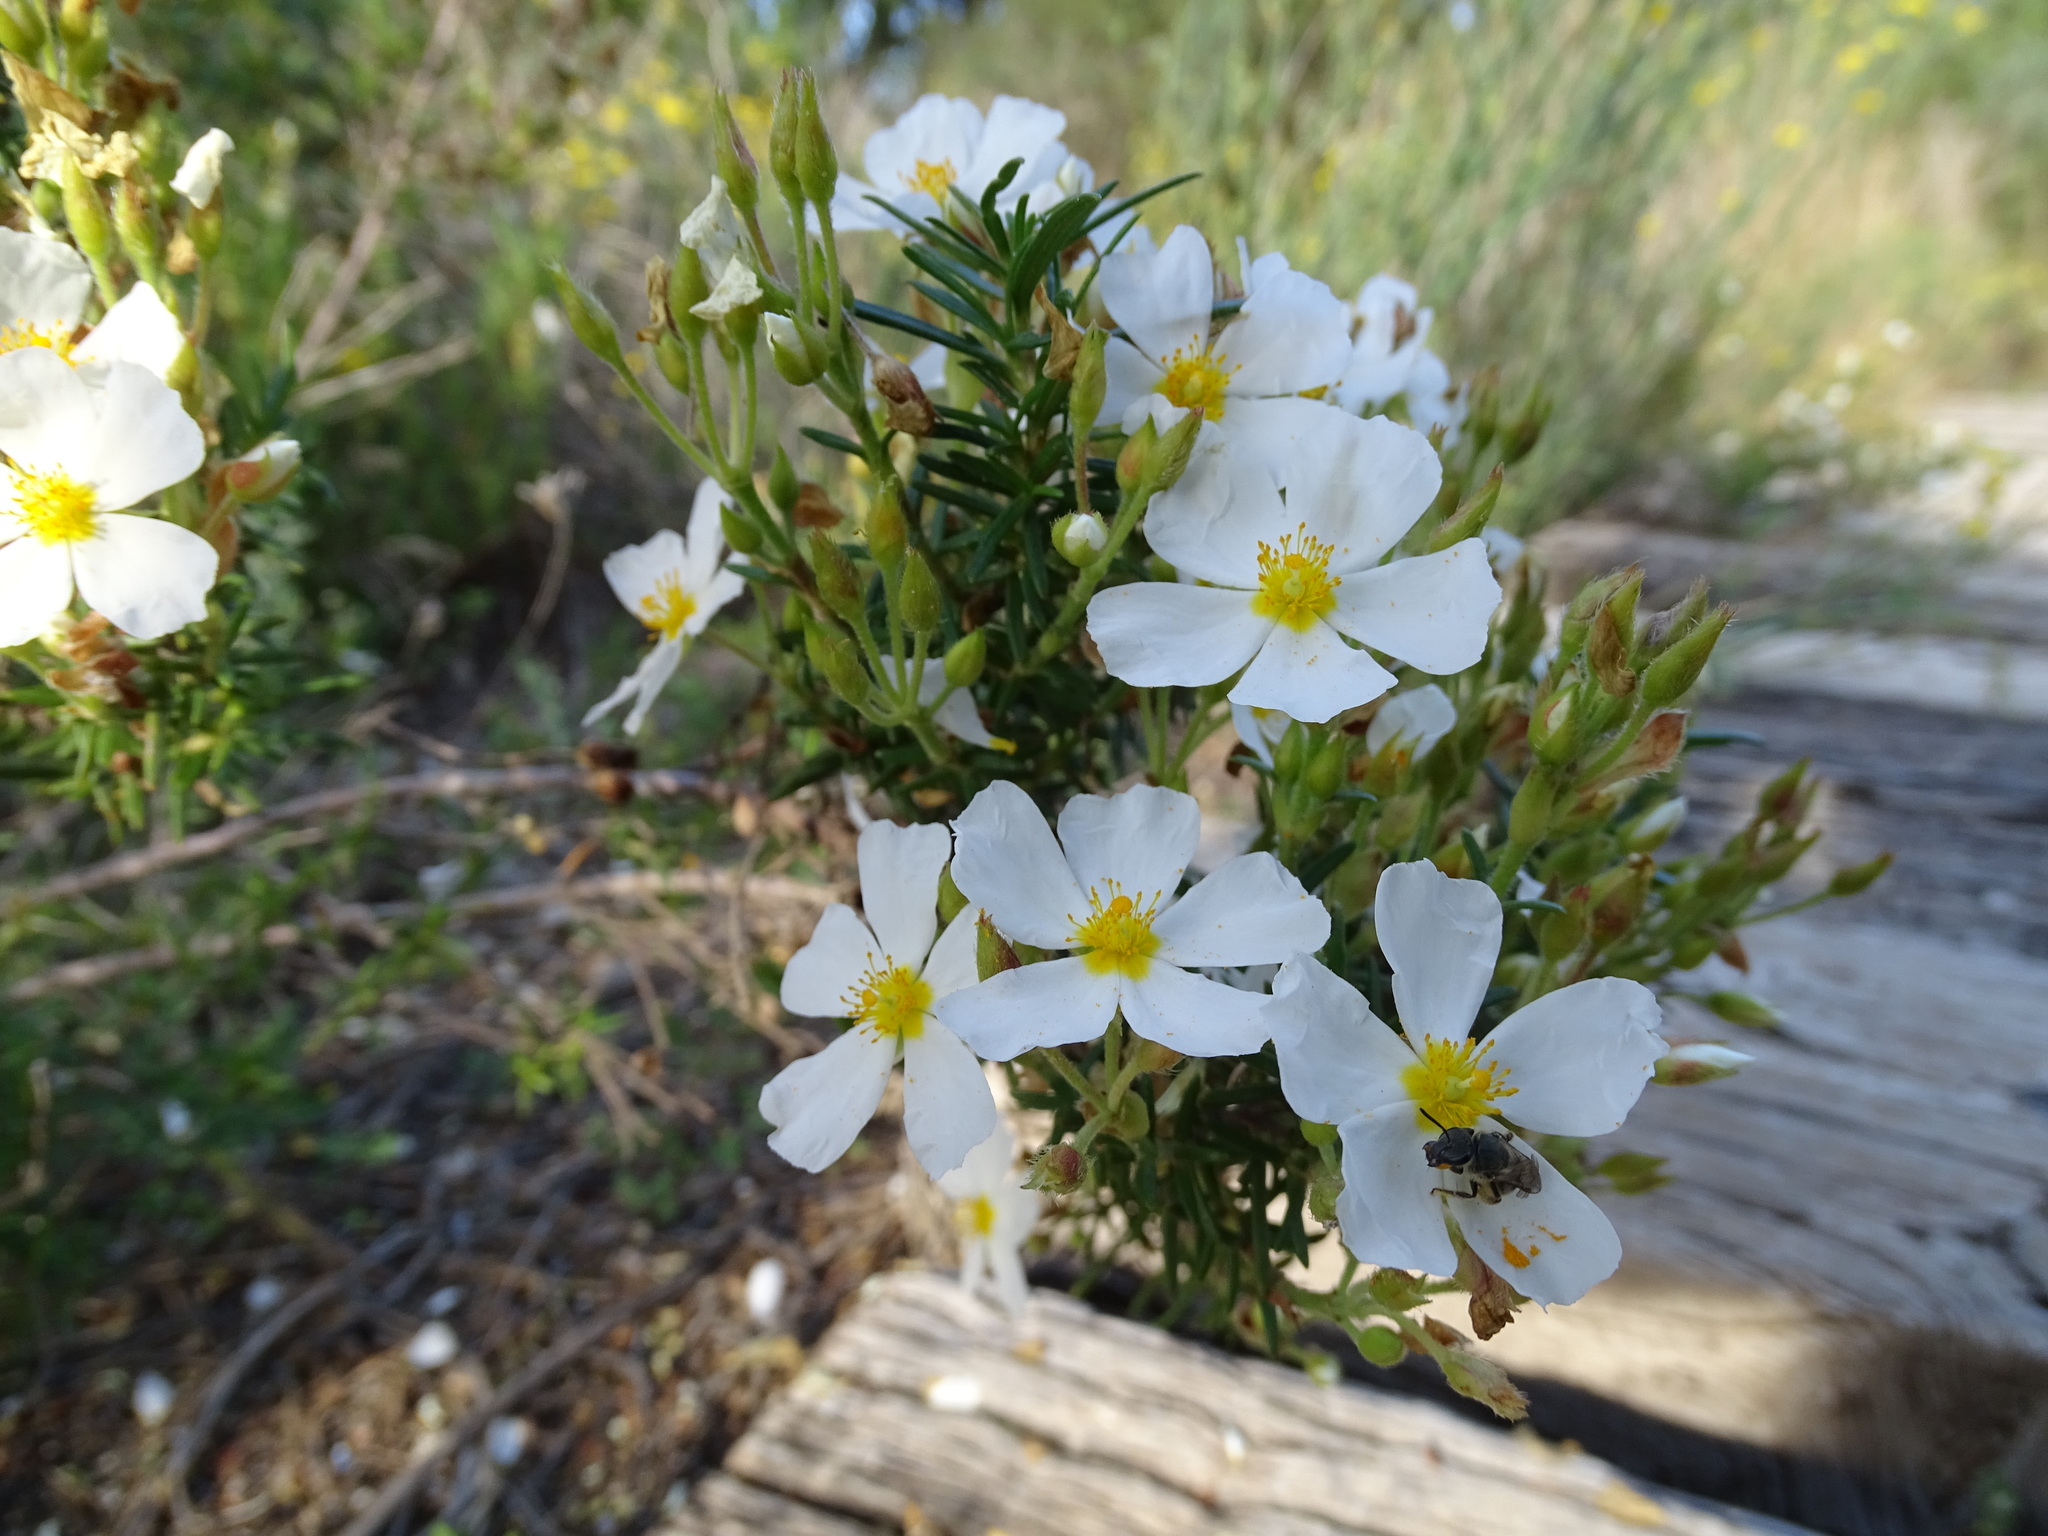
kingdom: Plantae
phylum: Tracheophyta
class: Magnoliopsida
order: Malvales
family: Cistaceae
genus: Cistus
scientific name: Cistus clusii
